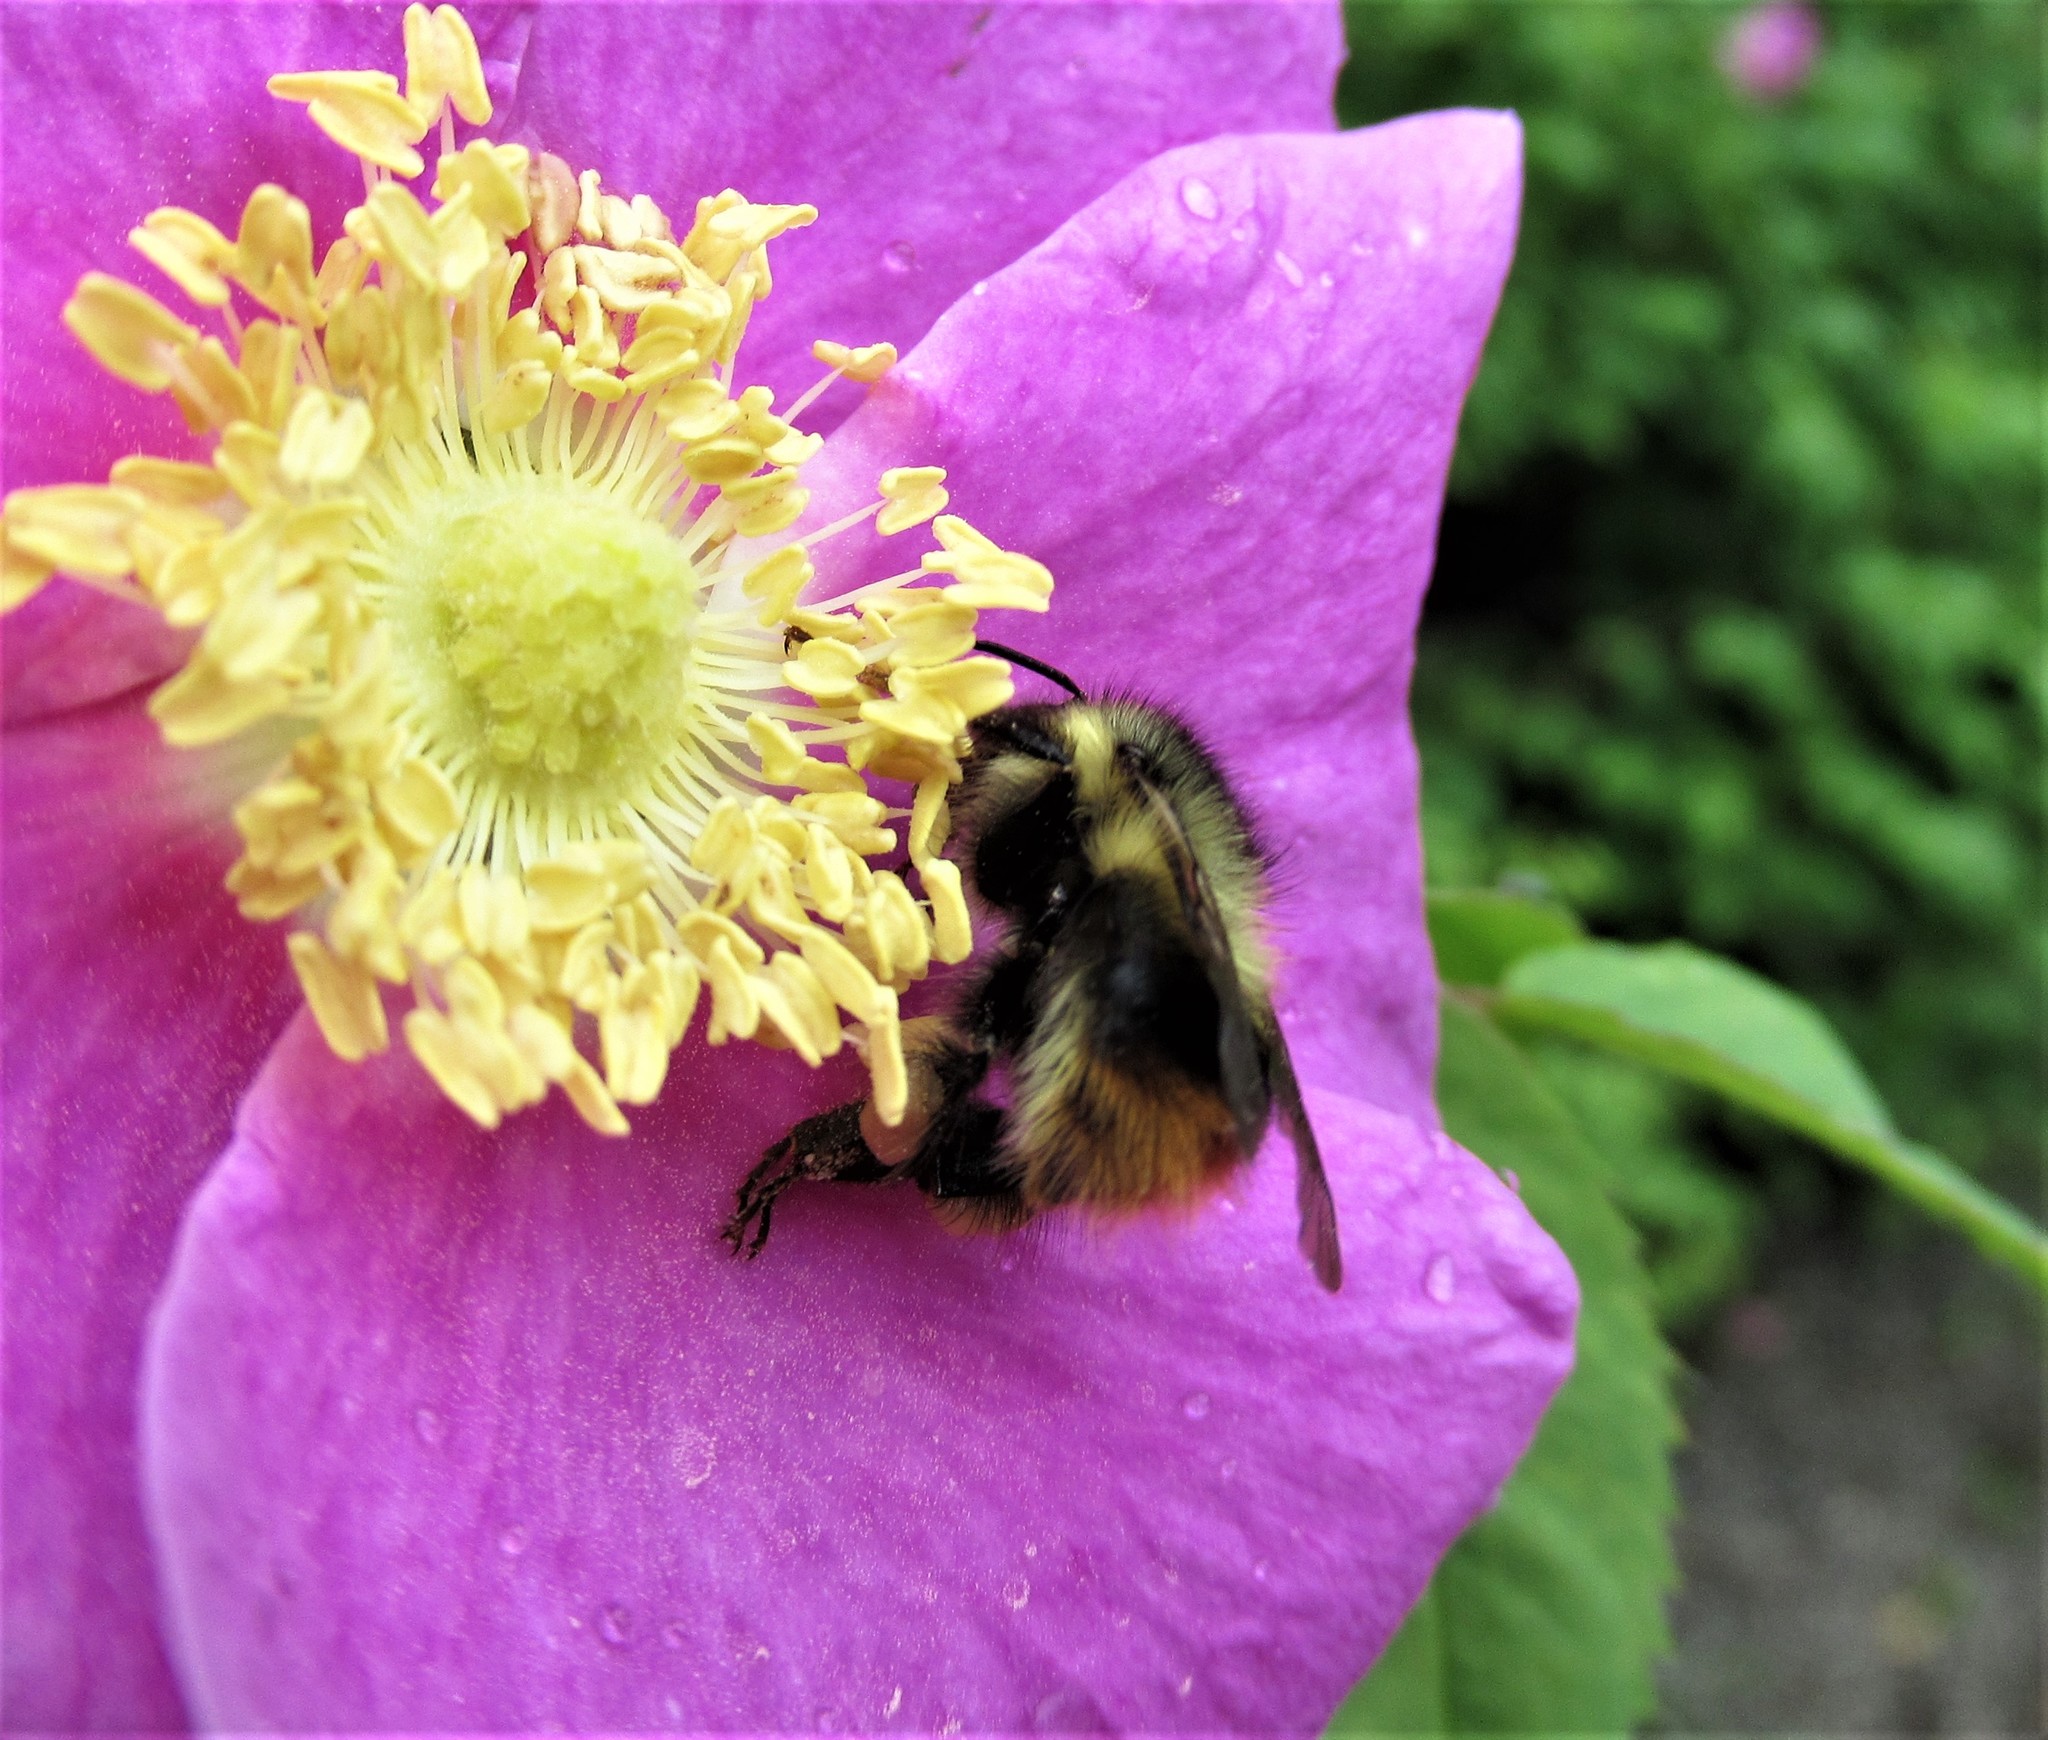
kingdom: Animalia
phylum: Arthropoda
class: Insecta
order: Hymenoptera
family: Apidae
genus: Bombus
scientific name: Bombus mixtus
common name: Fuzzy-horned bumble bee
